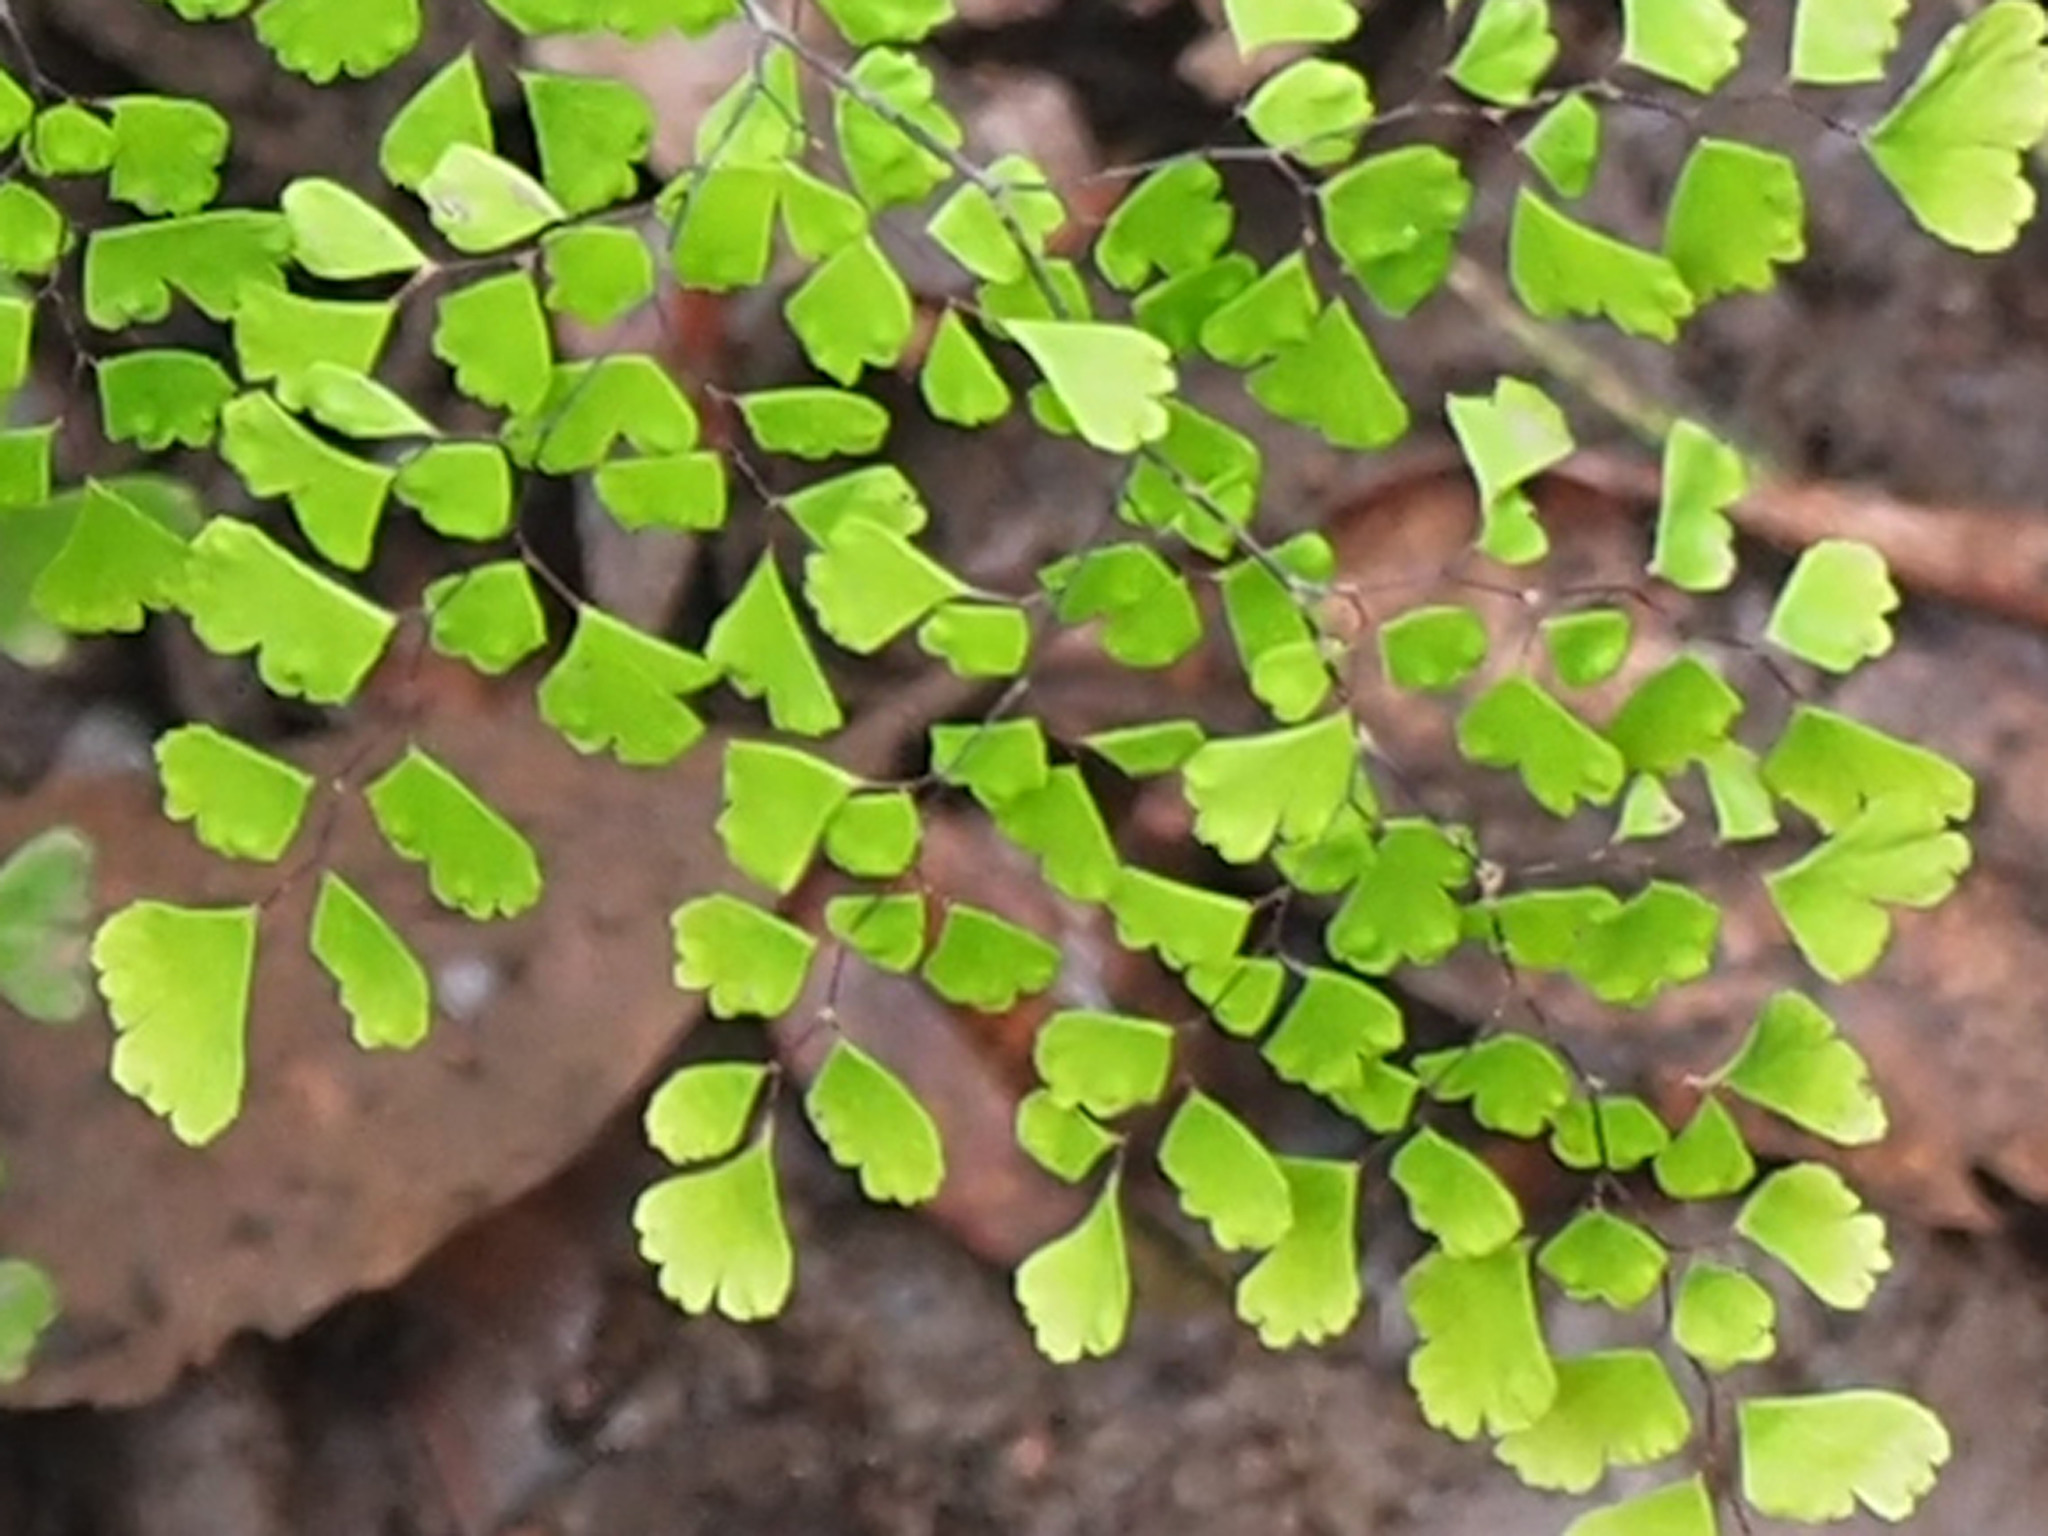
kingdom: Plantae
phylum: Tracheophyta
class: Polypodiopsida
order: Polypodiales
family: Pteridaceae
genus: Adiantum
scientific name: Adiantum raddianum
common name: Delta maidenhair fern
